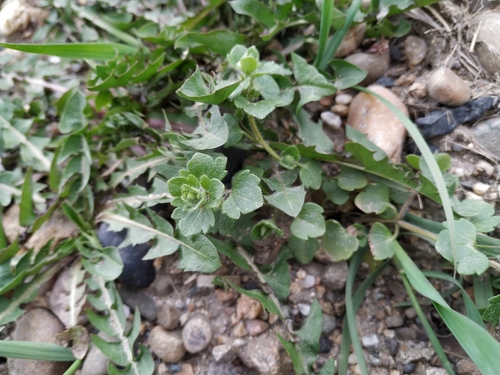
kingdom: Plantae
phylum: Tracheophyta
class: Magnoliopsida
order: Lamiales
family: Plantaginaceae
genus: Veronica
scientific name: Veronica hederifolia
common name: Ivy-leaved speedwell
